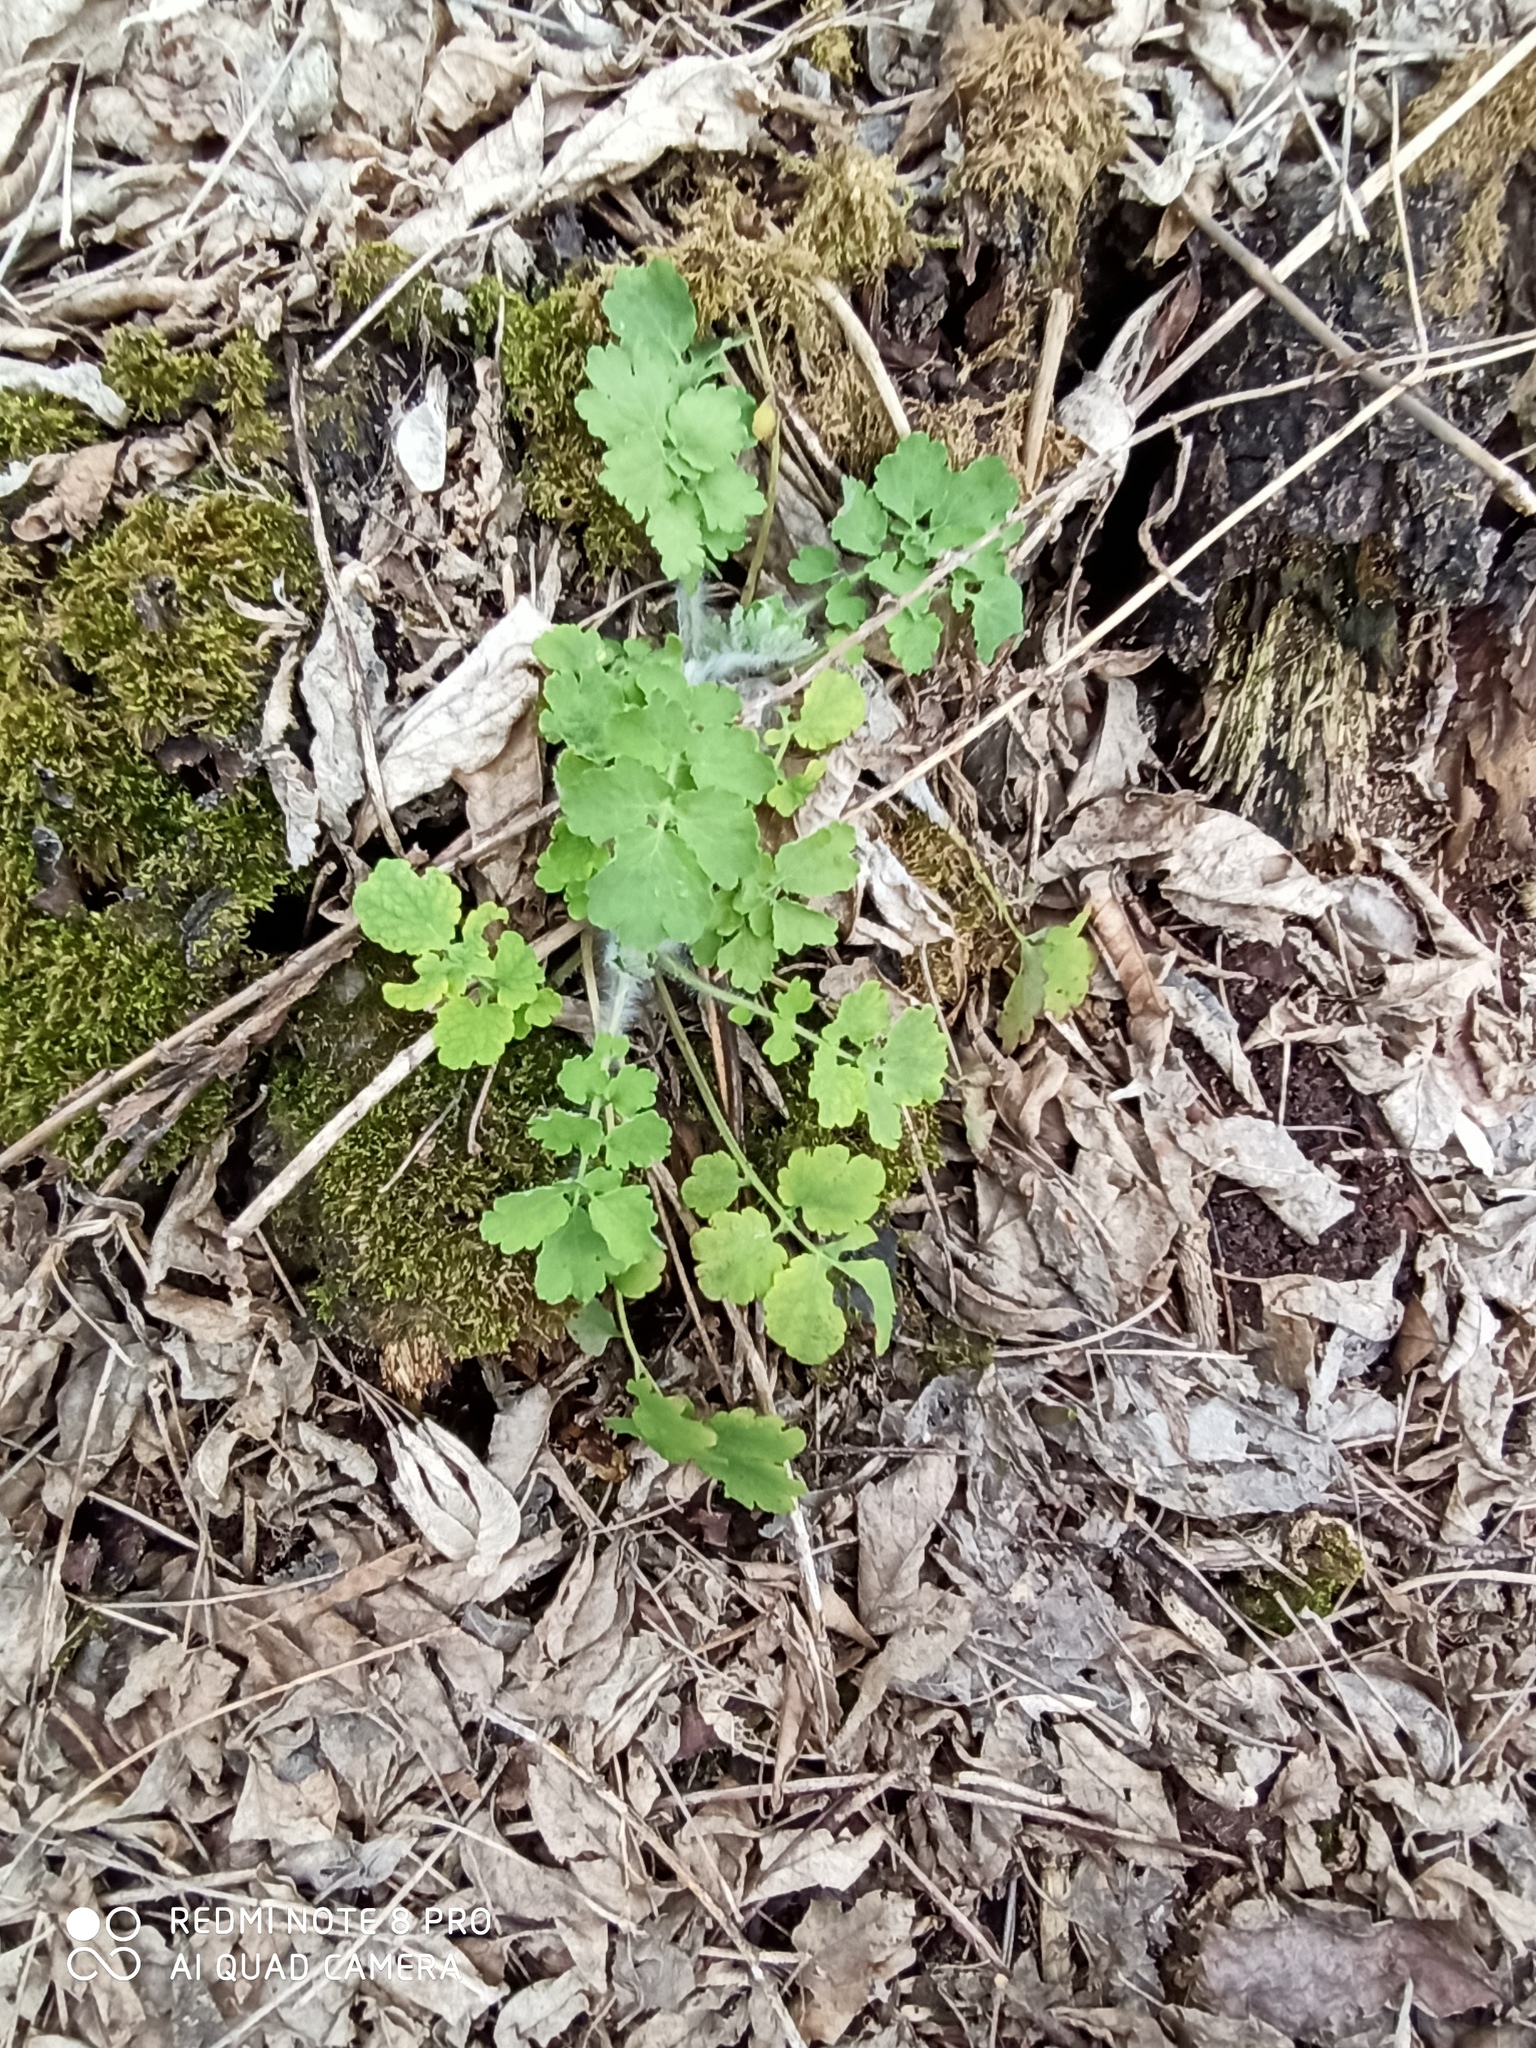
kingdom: Plantae
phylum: Tracheophyta
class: Magnoliopsida
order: Ranunculales
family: Papaveraceae
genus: Chelidonium
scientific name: Chelidonium majus
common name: Greater celandine
